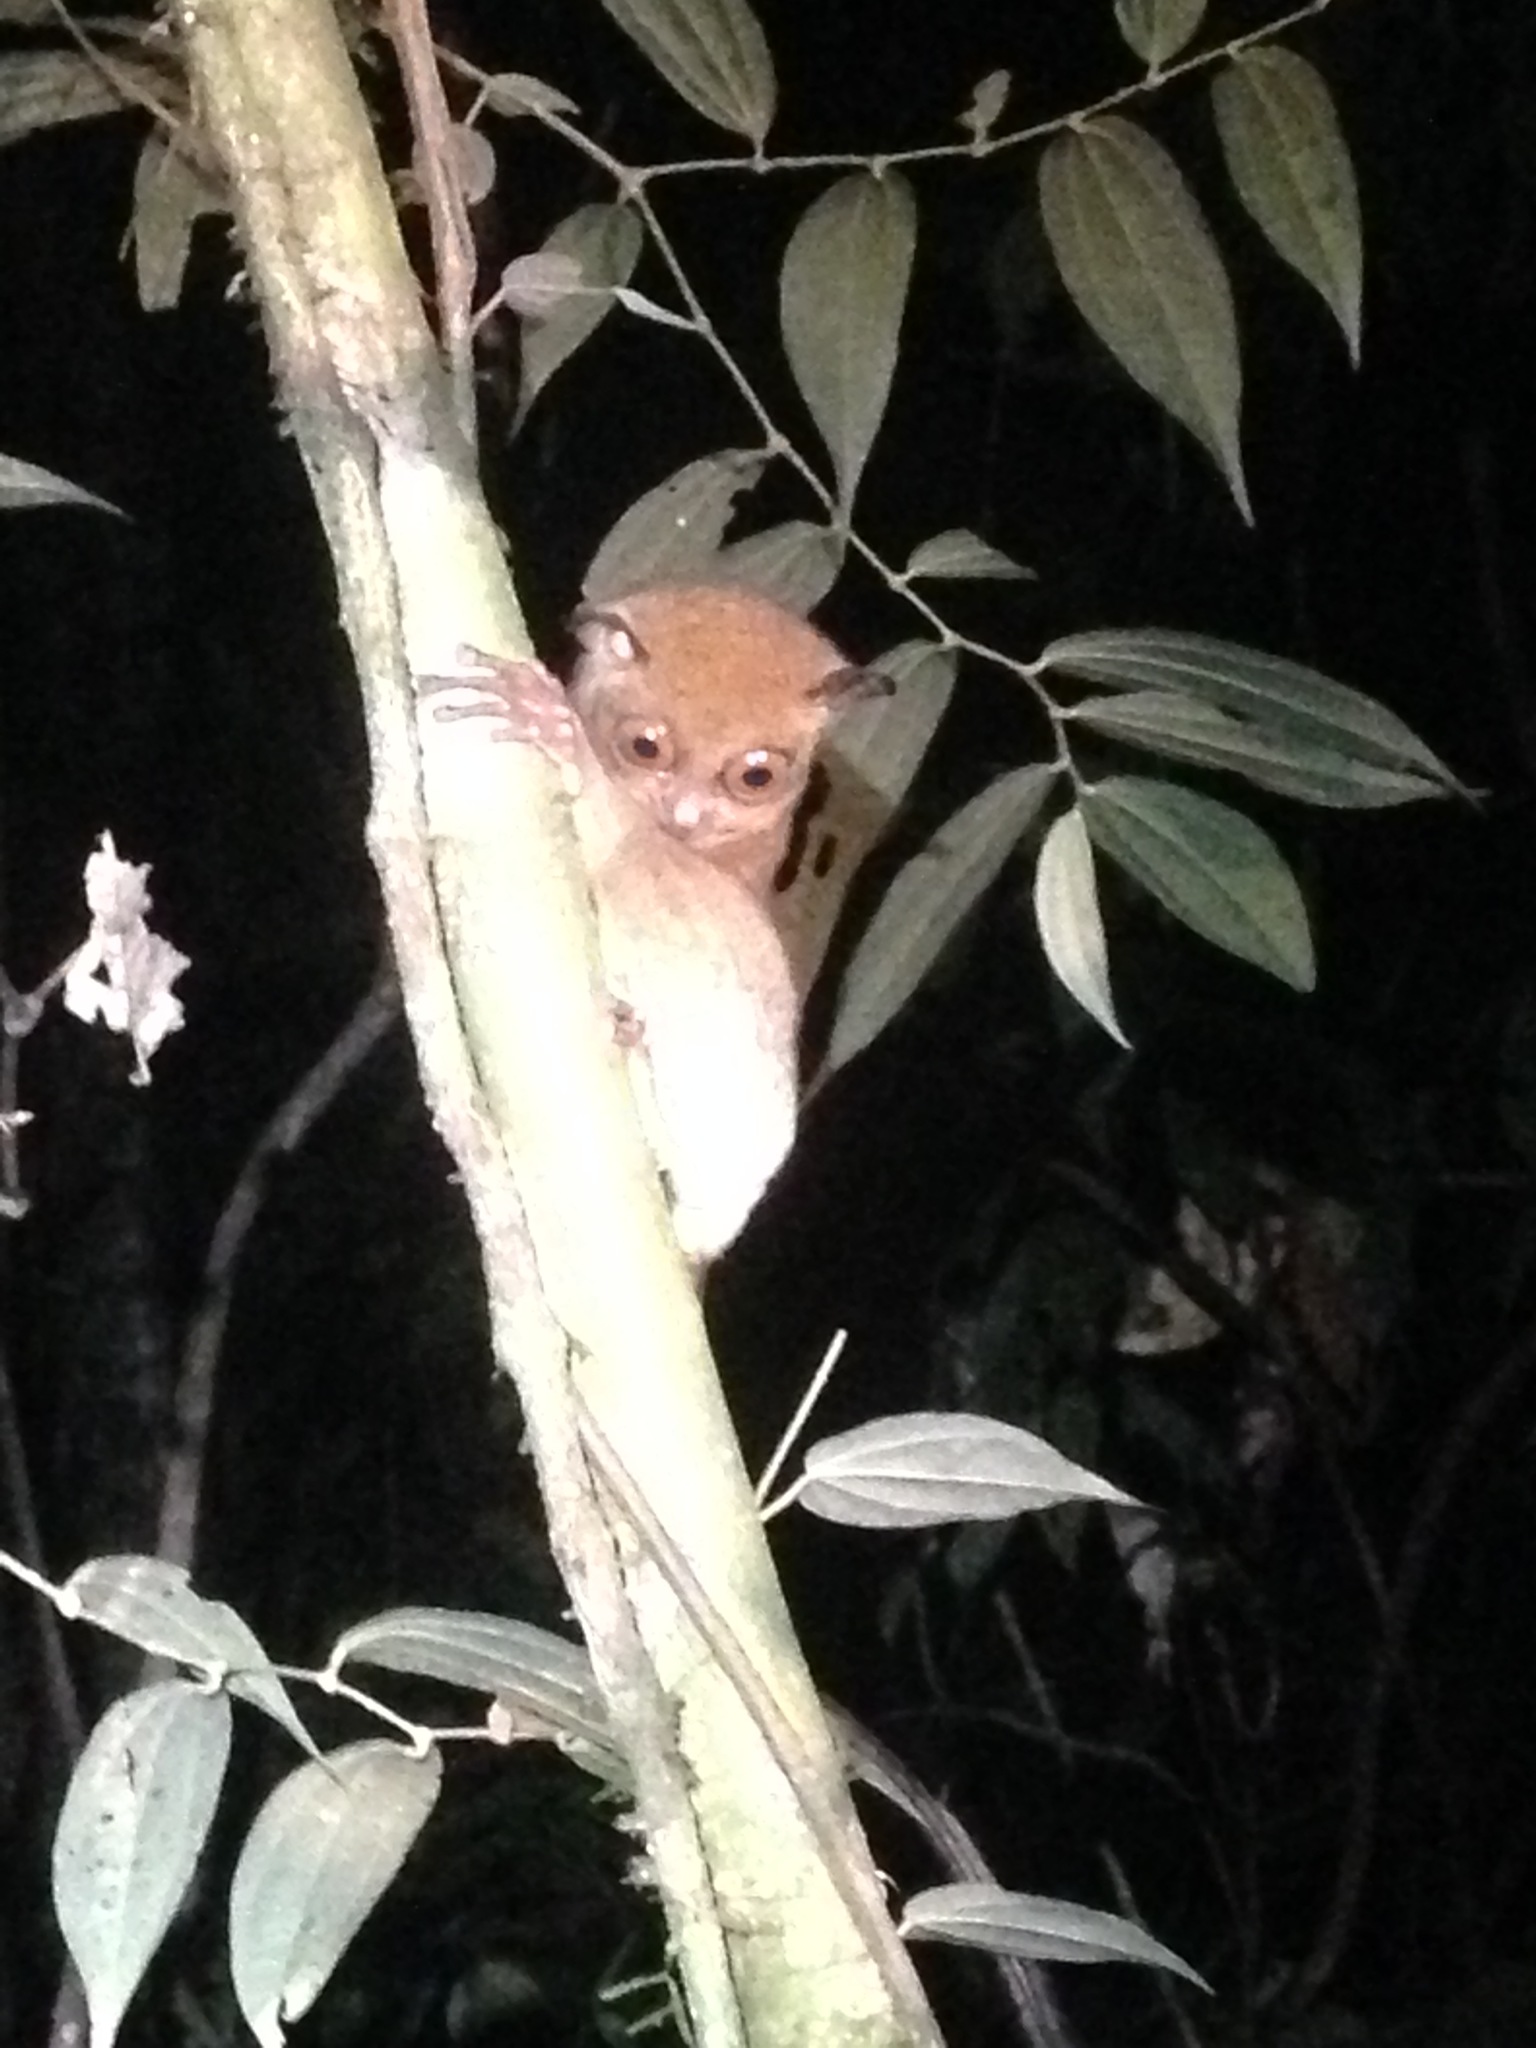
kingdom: Animalia
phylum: Chordata
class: Mammalia
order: Primates
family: Tarsiidae
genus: Cephalopachus
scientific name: Cephalopachus bancanus
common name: Western tarsier
